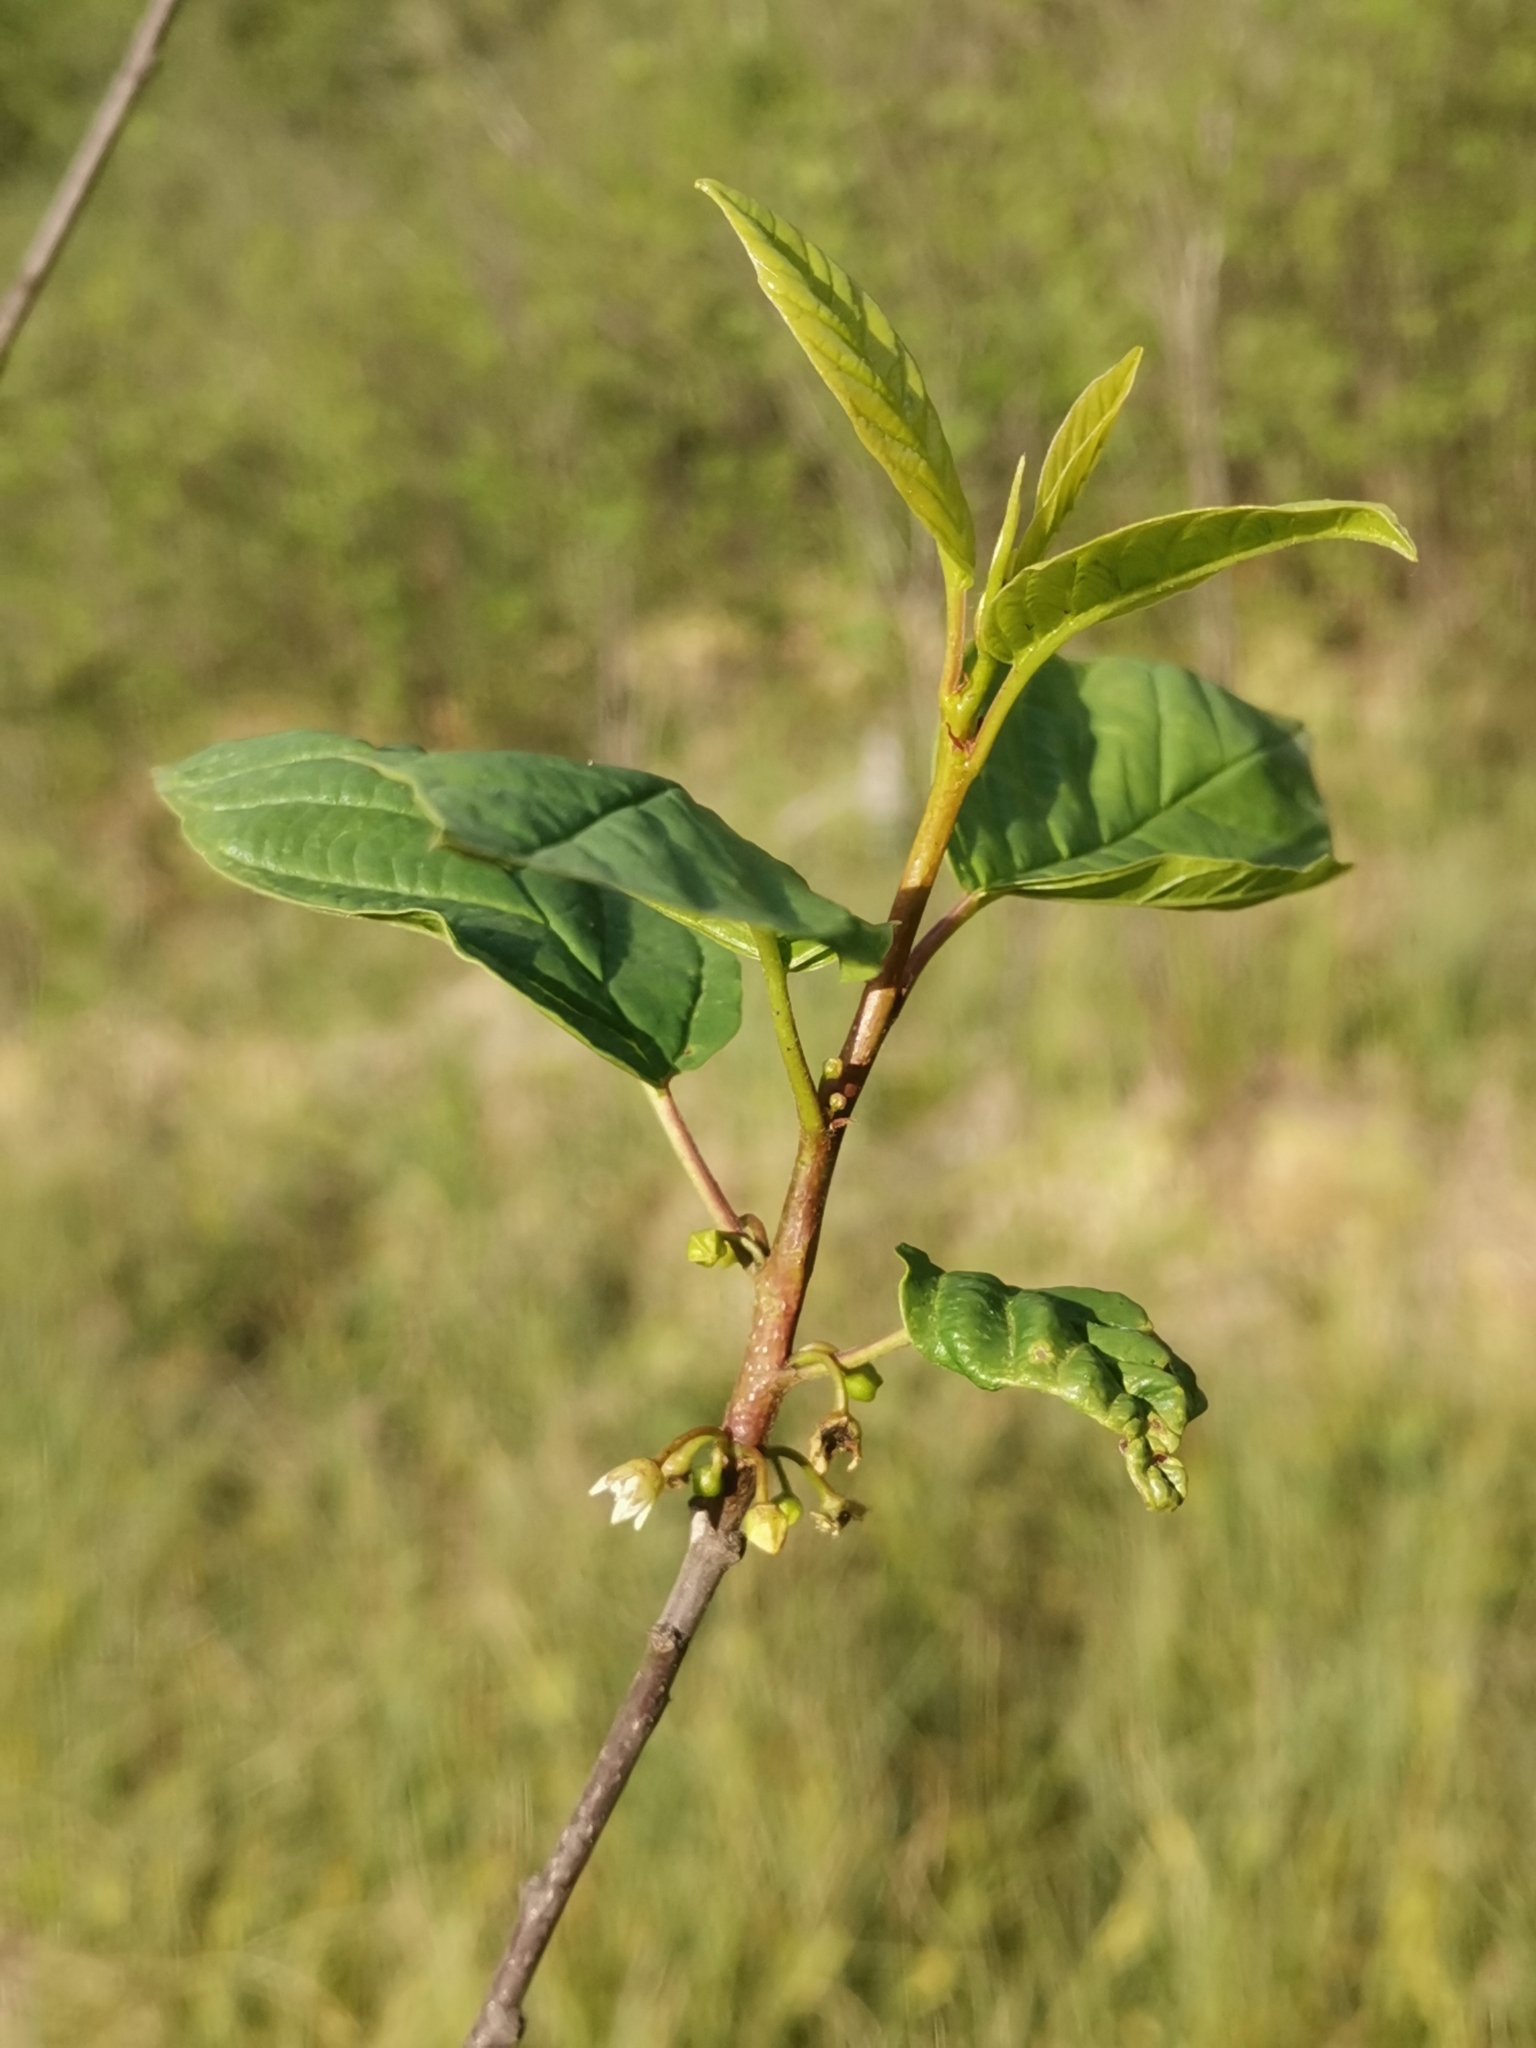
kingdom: Plantae
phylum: Tracheophyta
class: Magnoliopsida
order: Rosales
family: Rhamnaceae
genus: Frangula
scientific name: Frangula alnus
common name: Alder buckthorn
